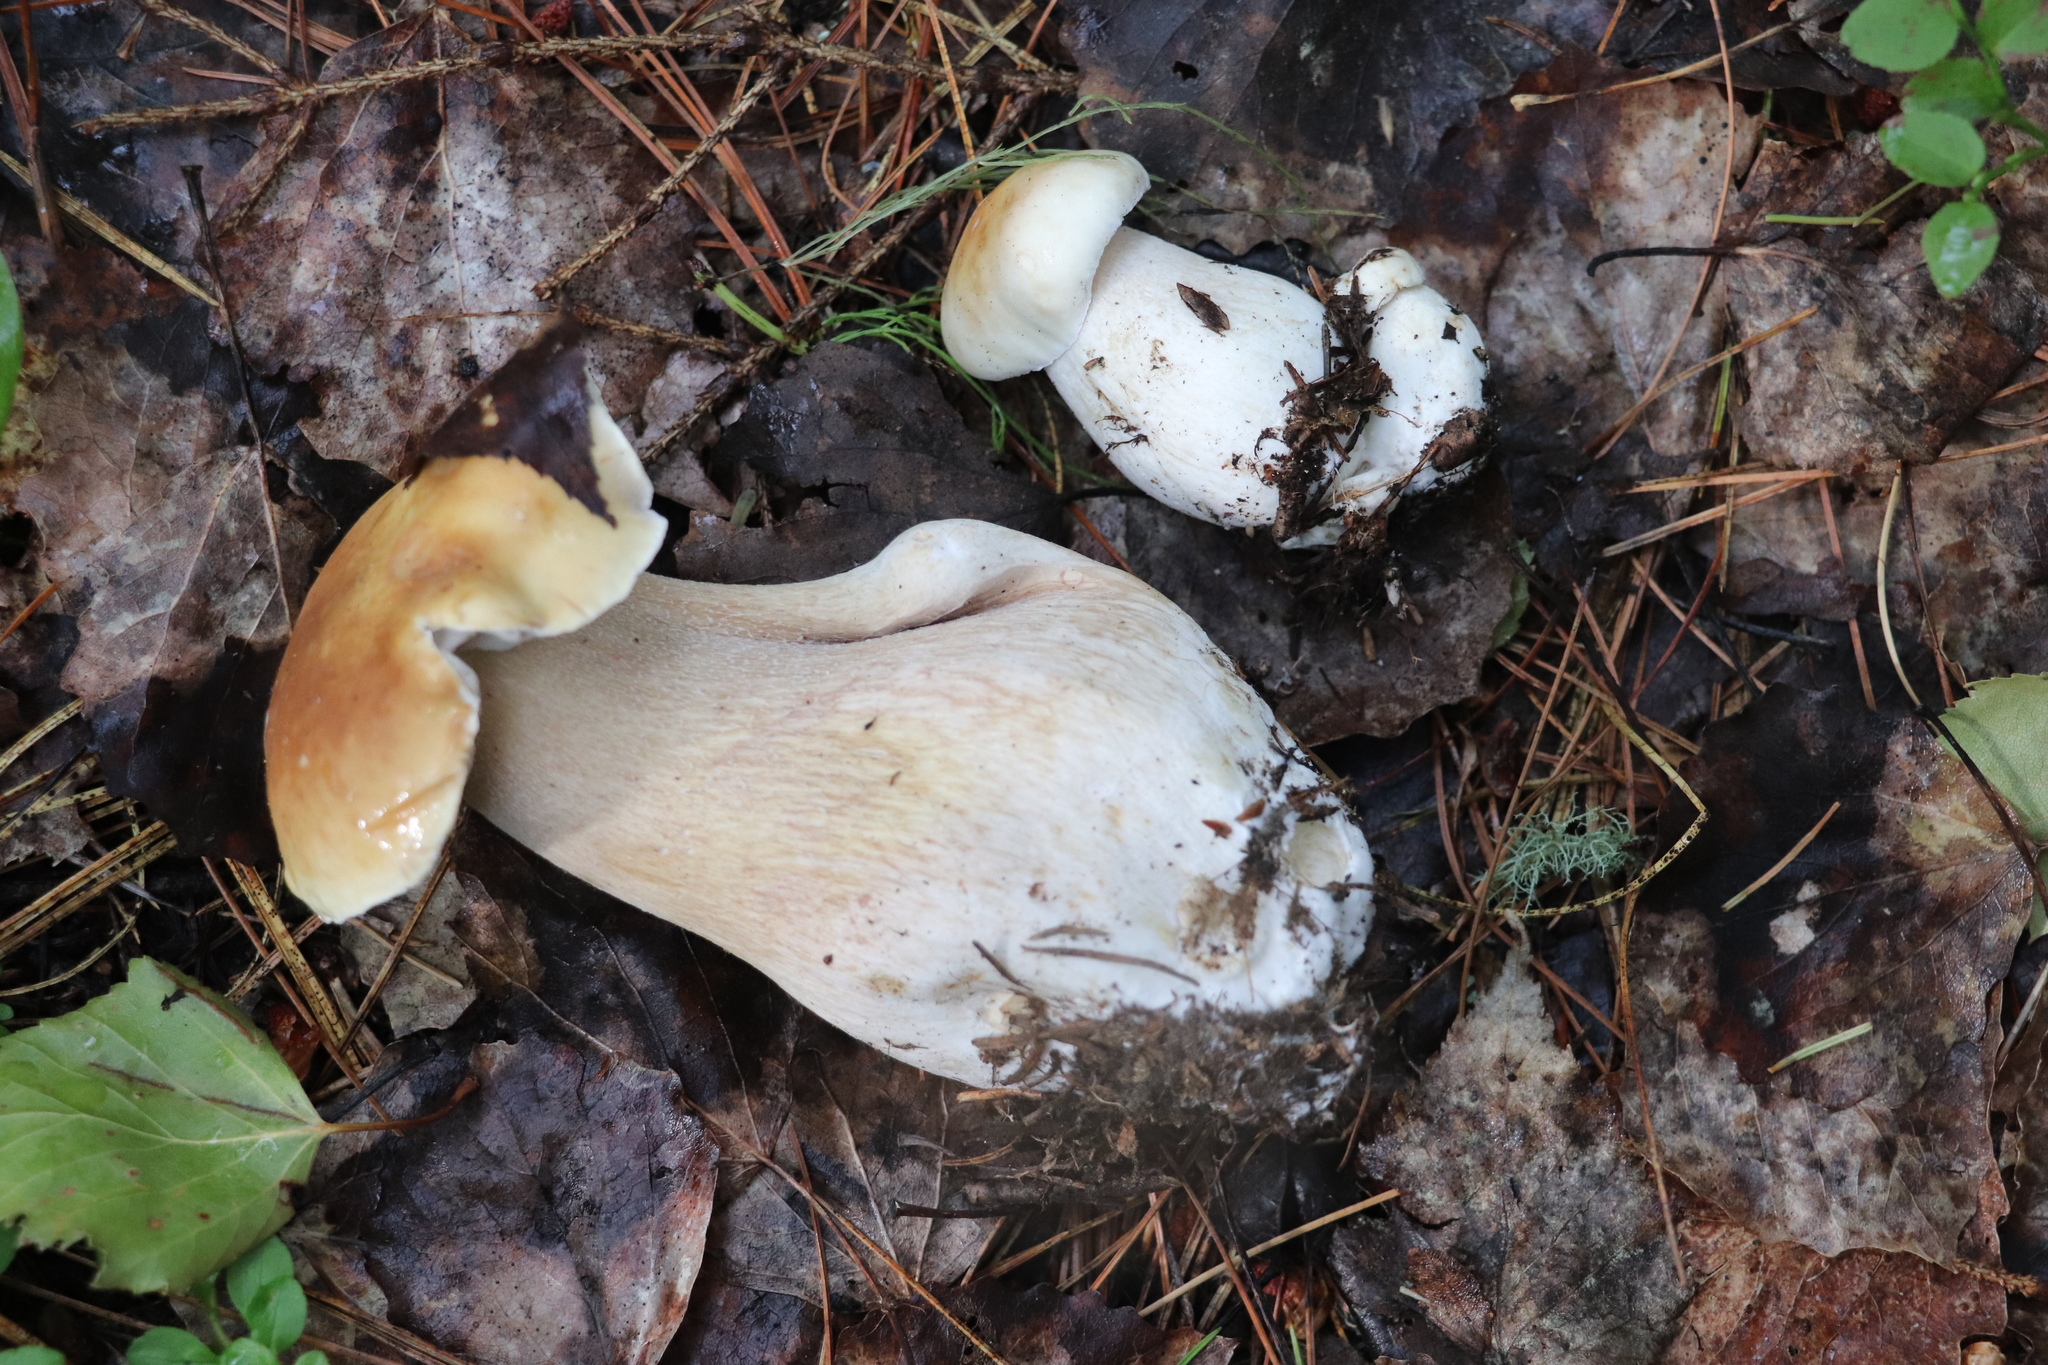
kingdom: Fungi
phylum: Basidiomycota
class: Agaricomycetes
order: Boletales
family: Boletaceae
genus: Boletus
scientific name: Boletus edulis
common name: Cep
